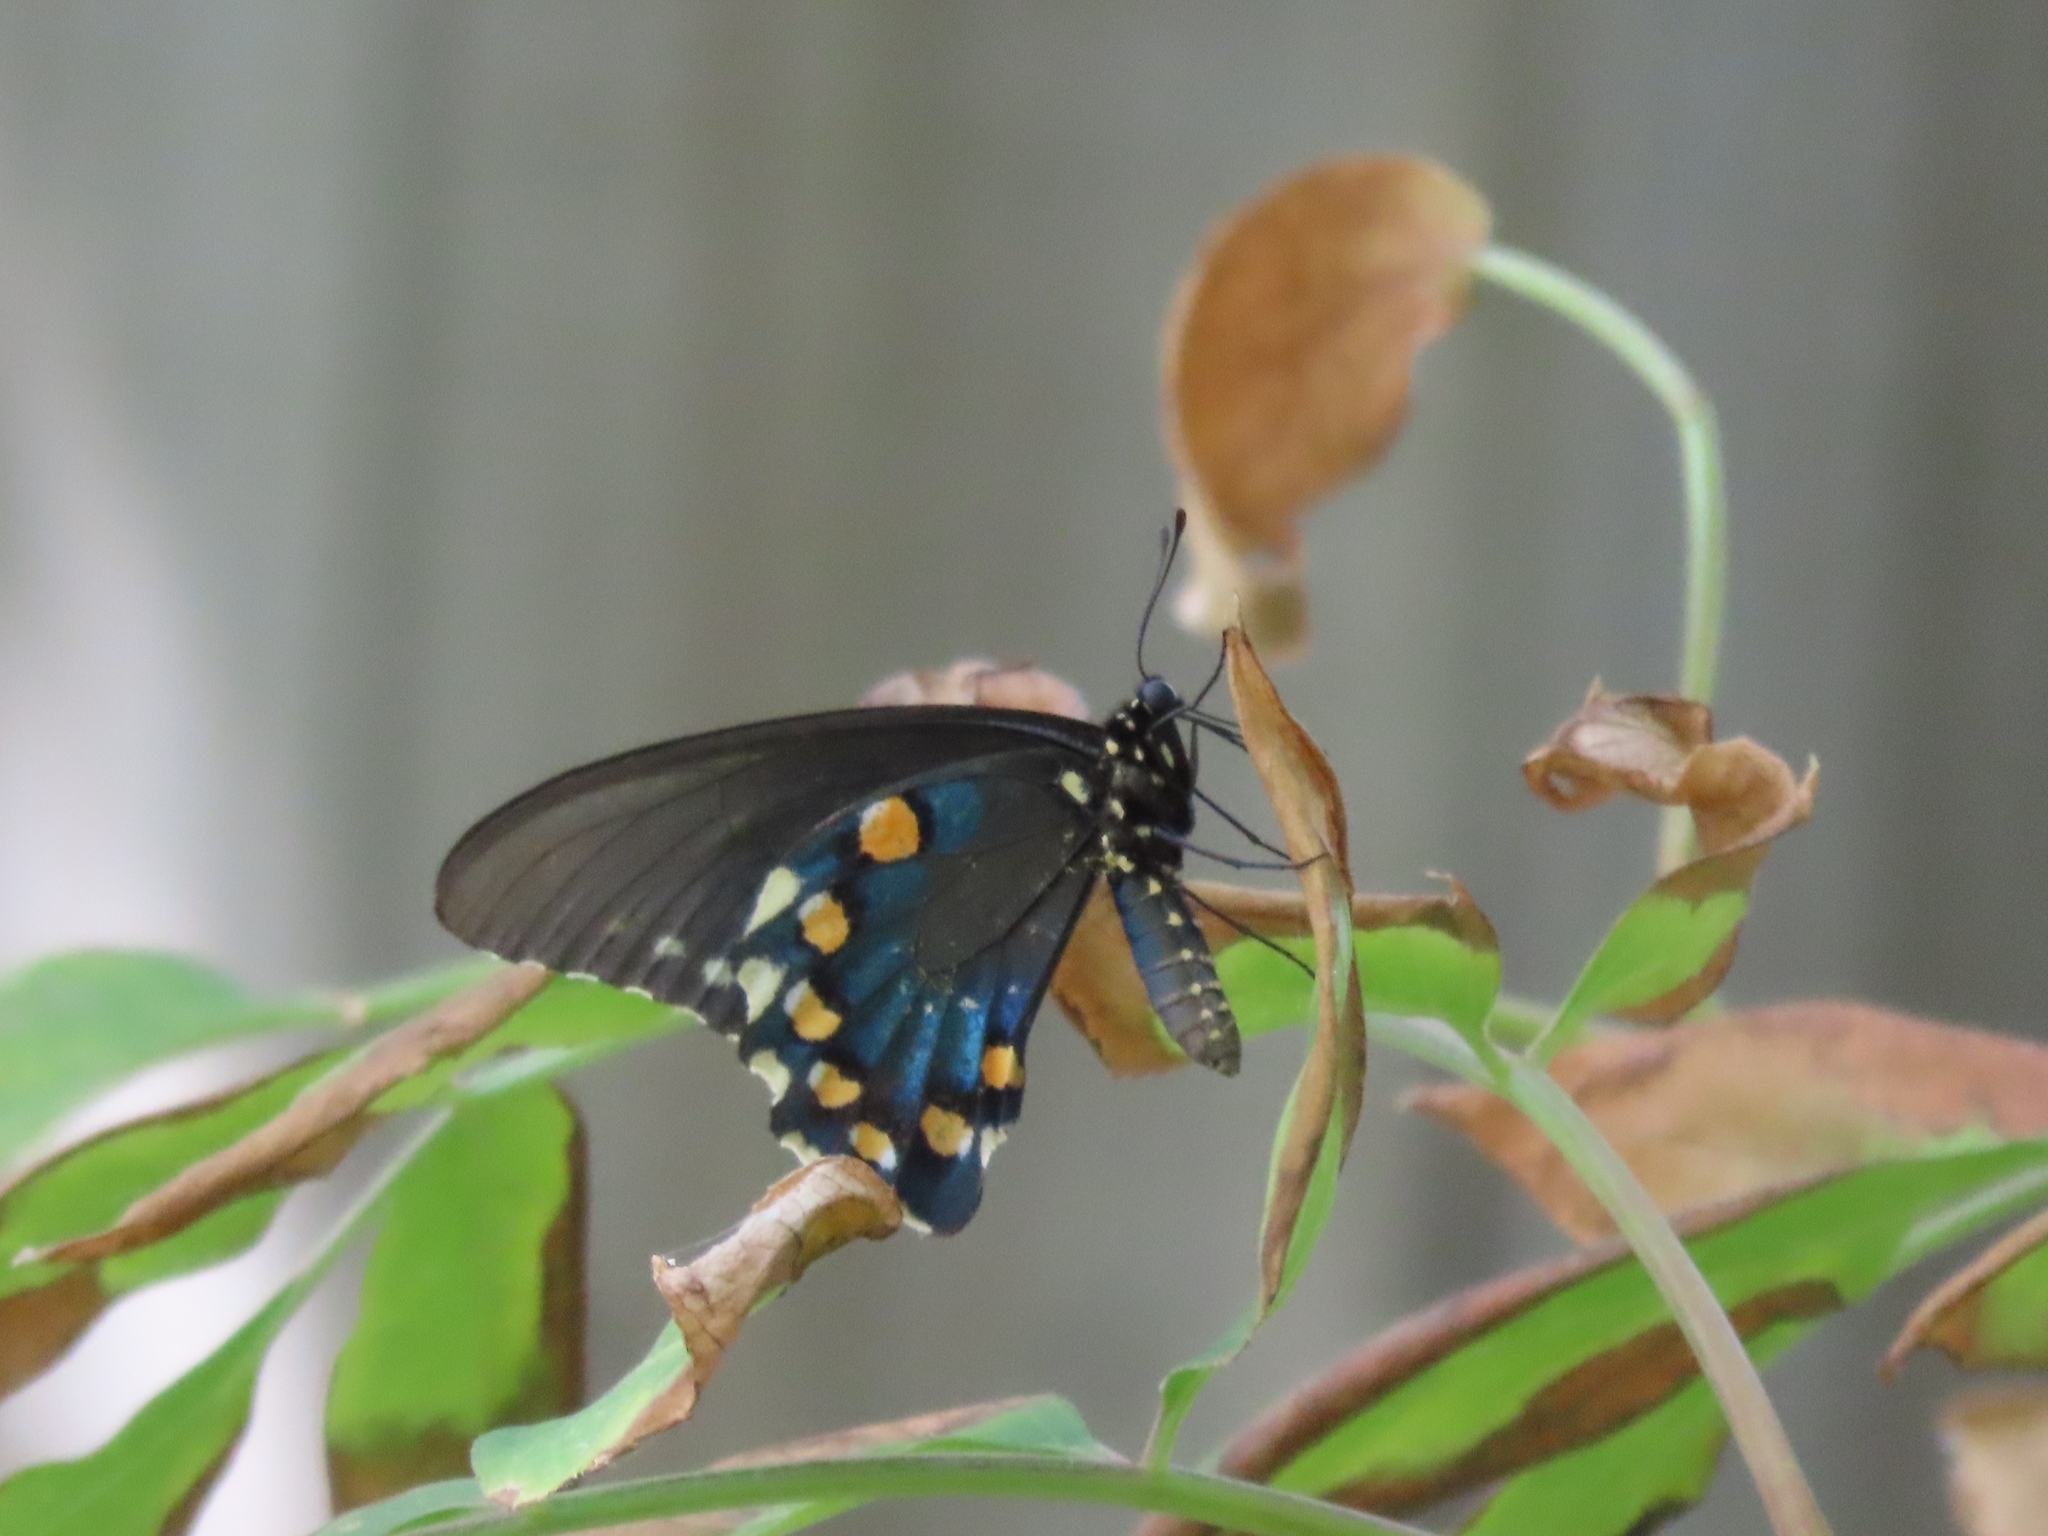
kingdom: Animalia
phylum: Arthropoda
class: Insecta
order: Lepidoptera
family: Papilionidae
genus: Battus
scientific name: Battus philenor
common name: Pipevine swallowtail
